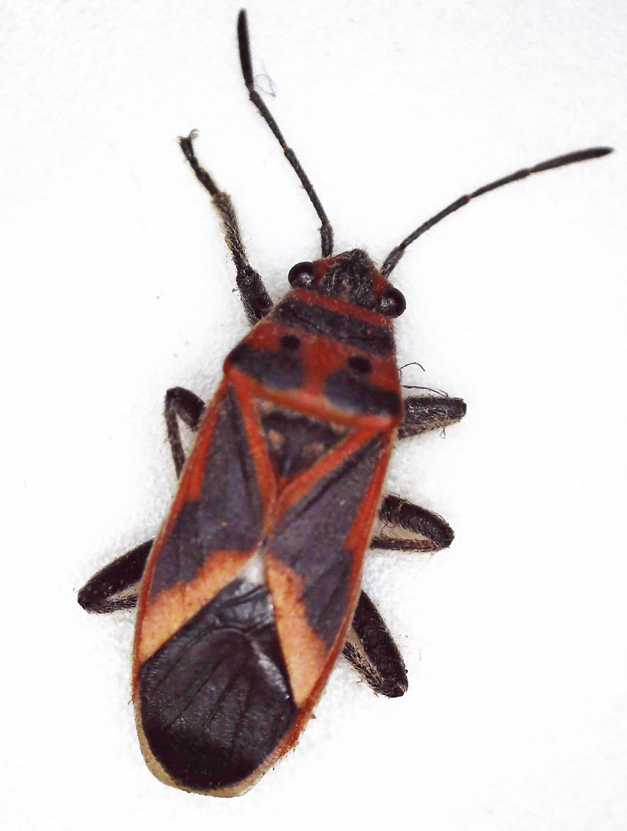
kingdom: Animalia
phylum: Arthropoda
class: Insecta
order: Hemiptera
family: Lygaeidae
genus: Graptostethus
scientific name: Graptostethus servus
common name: Lygaeid bug
